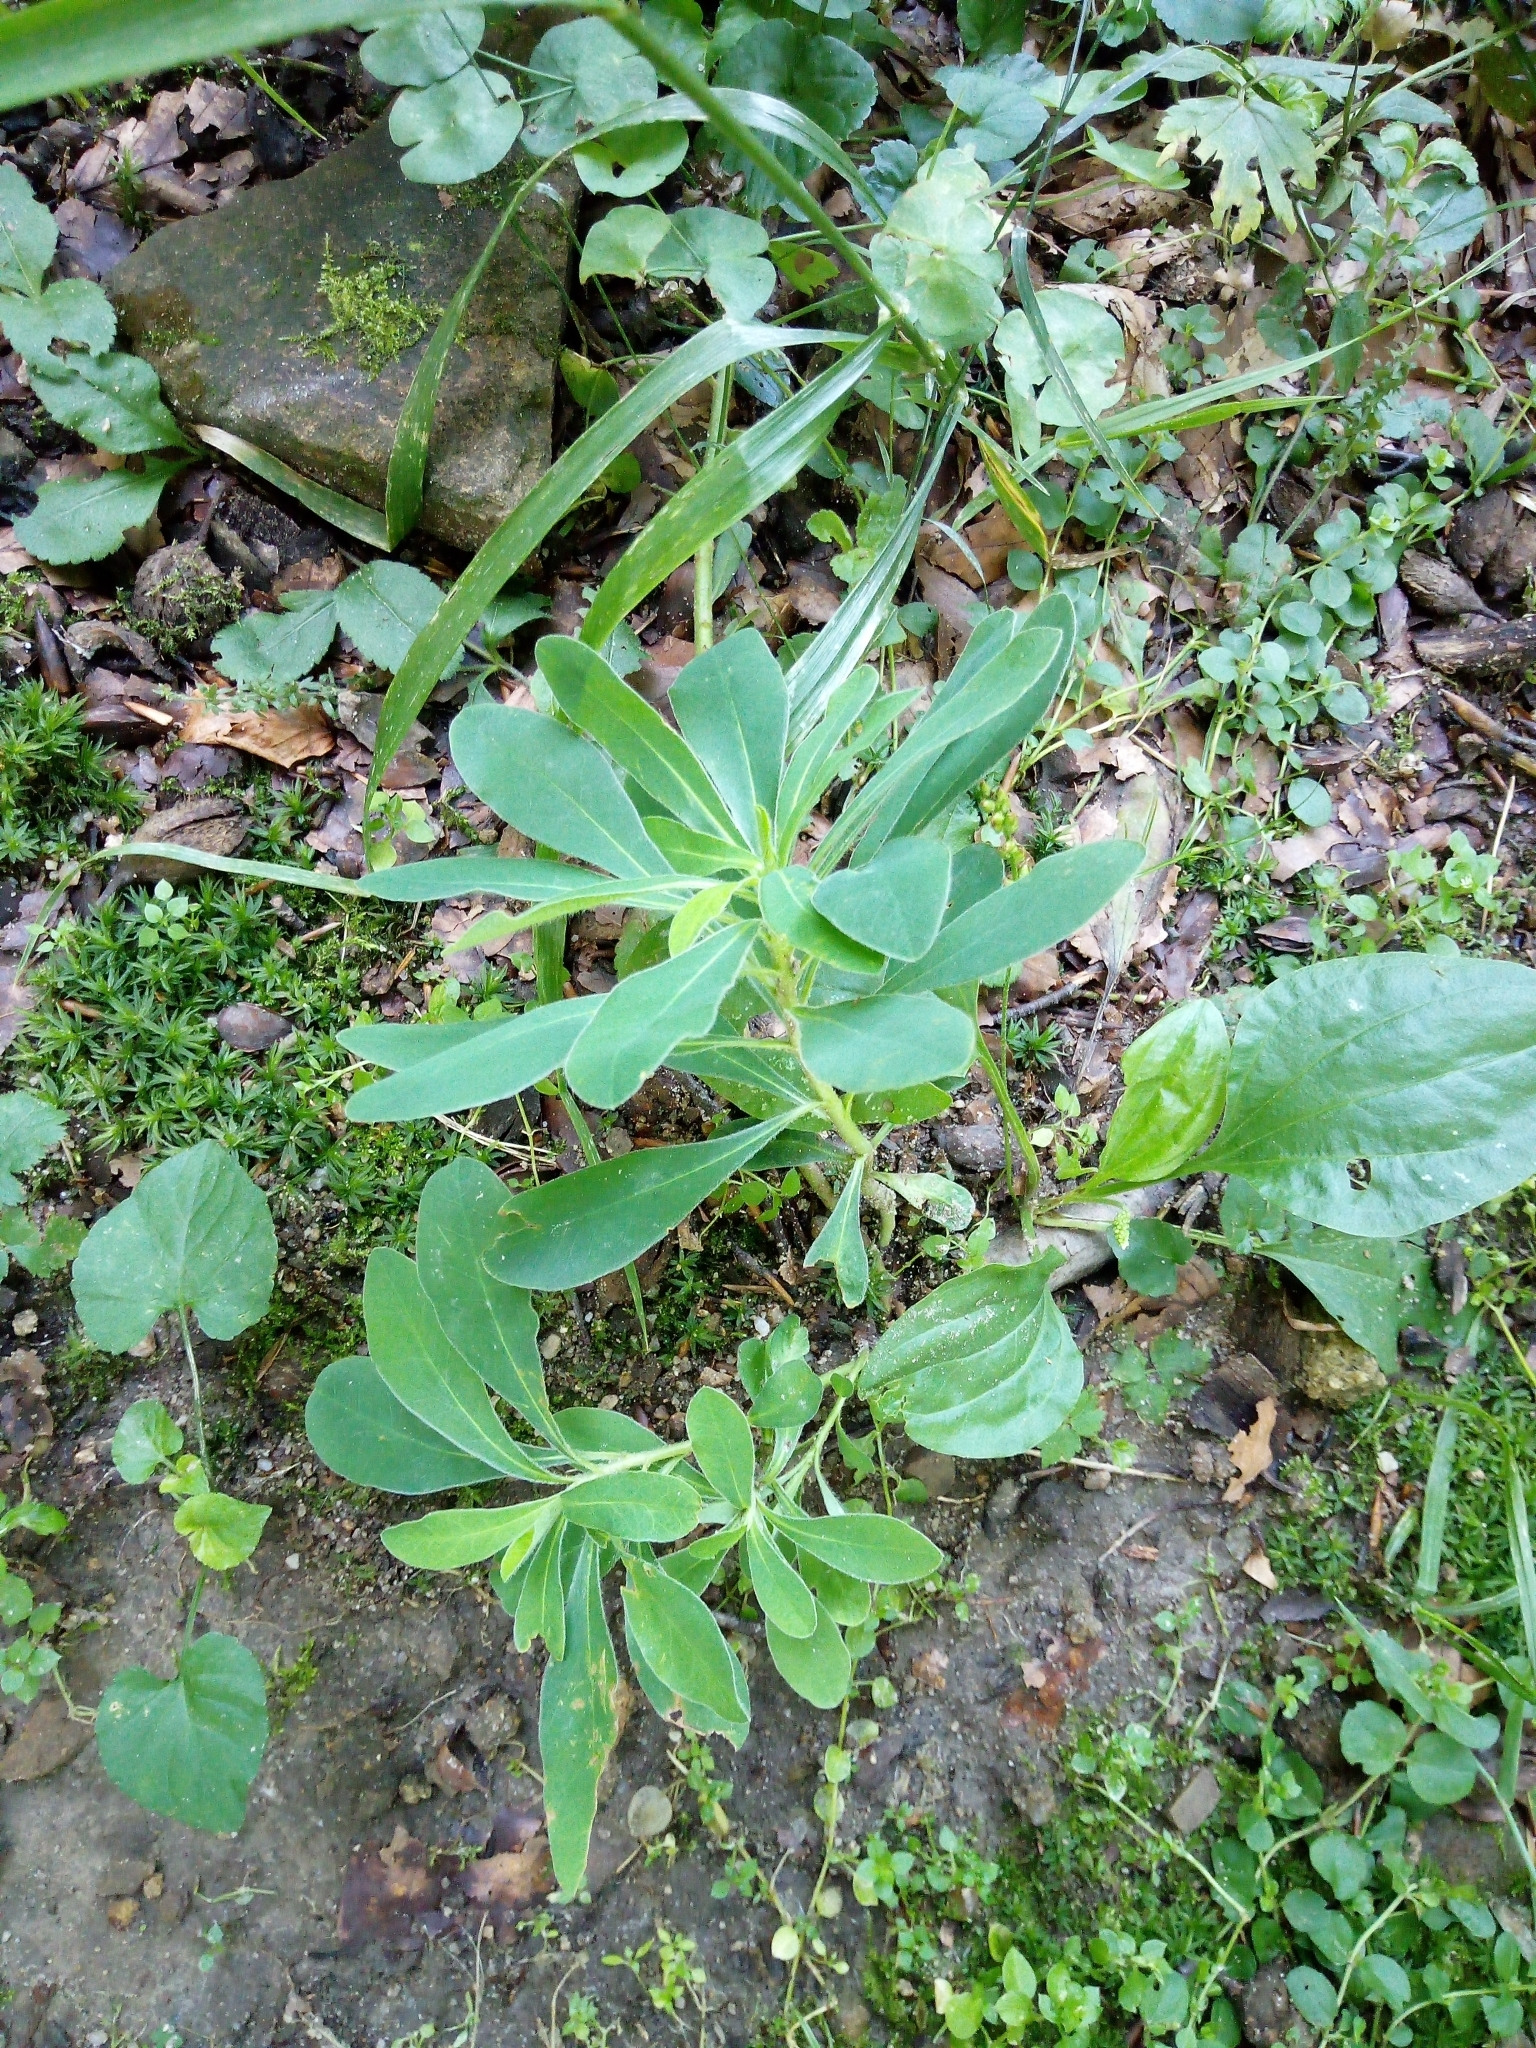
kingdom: Plantae
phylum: Tracheophyta
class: Magnoliopsida
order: Malpighiales
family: Euphorbiaceae
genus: Euphorbia
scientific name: Euphorbia amygdaloides
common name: Wood spurge
